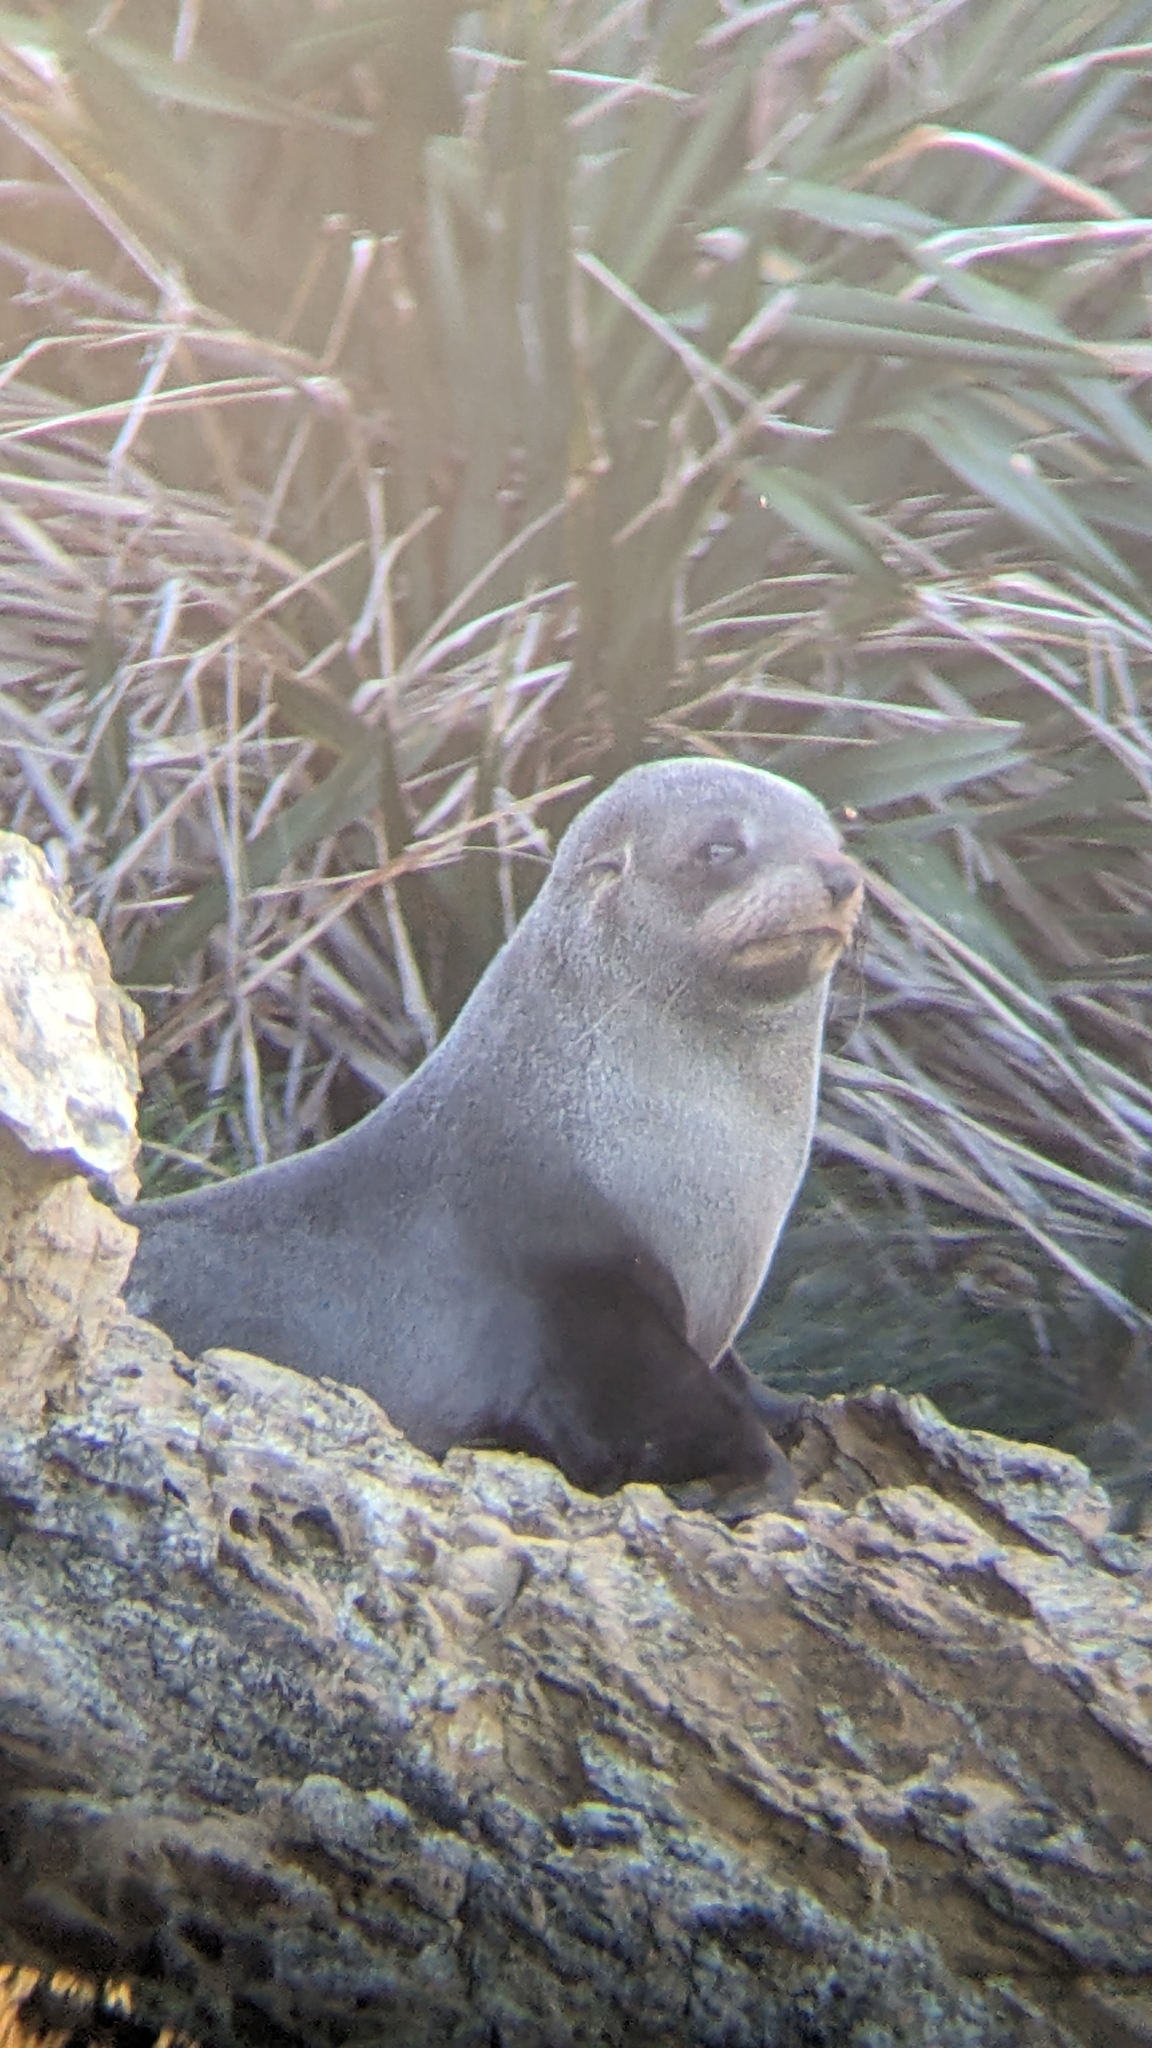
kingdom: Animalia
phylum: Chordata
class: Mammalia
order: Carnivora
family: Otariidae
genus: Arctocephalus
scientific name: Arctocephalus forsteri
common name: New zealand fur seal
